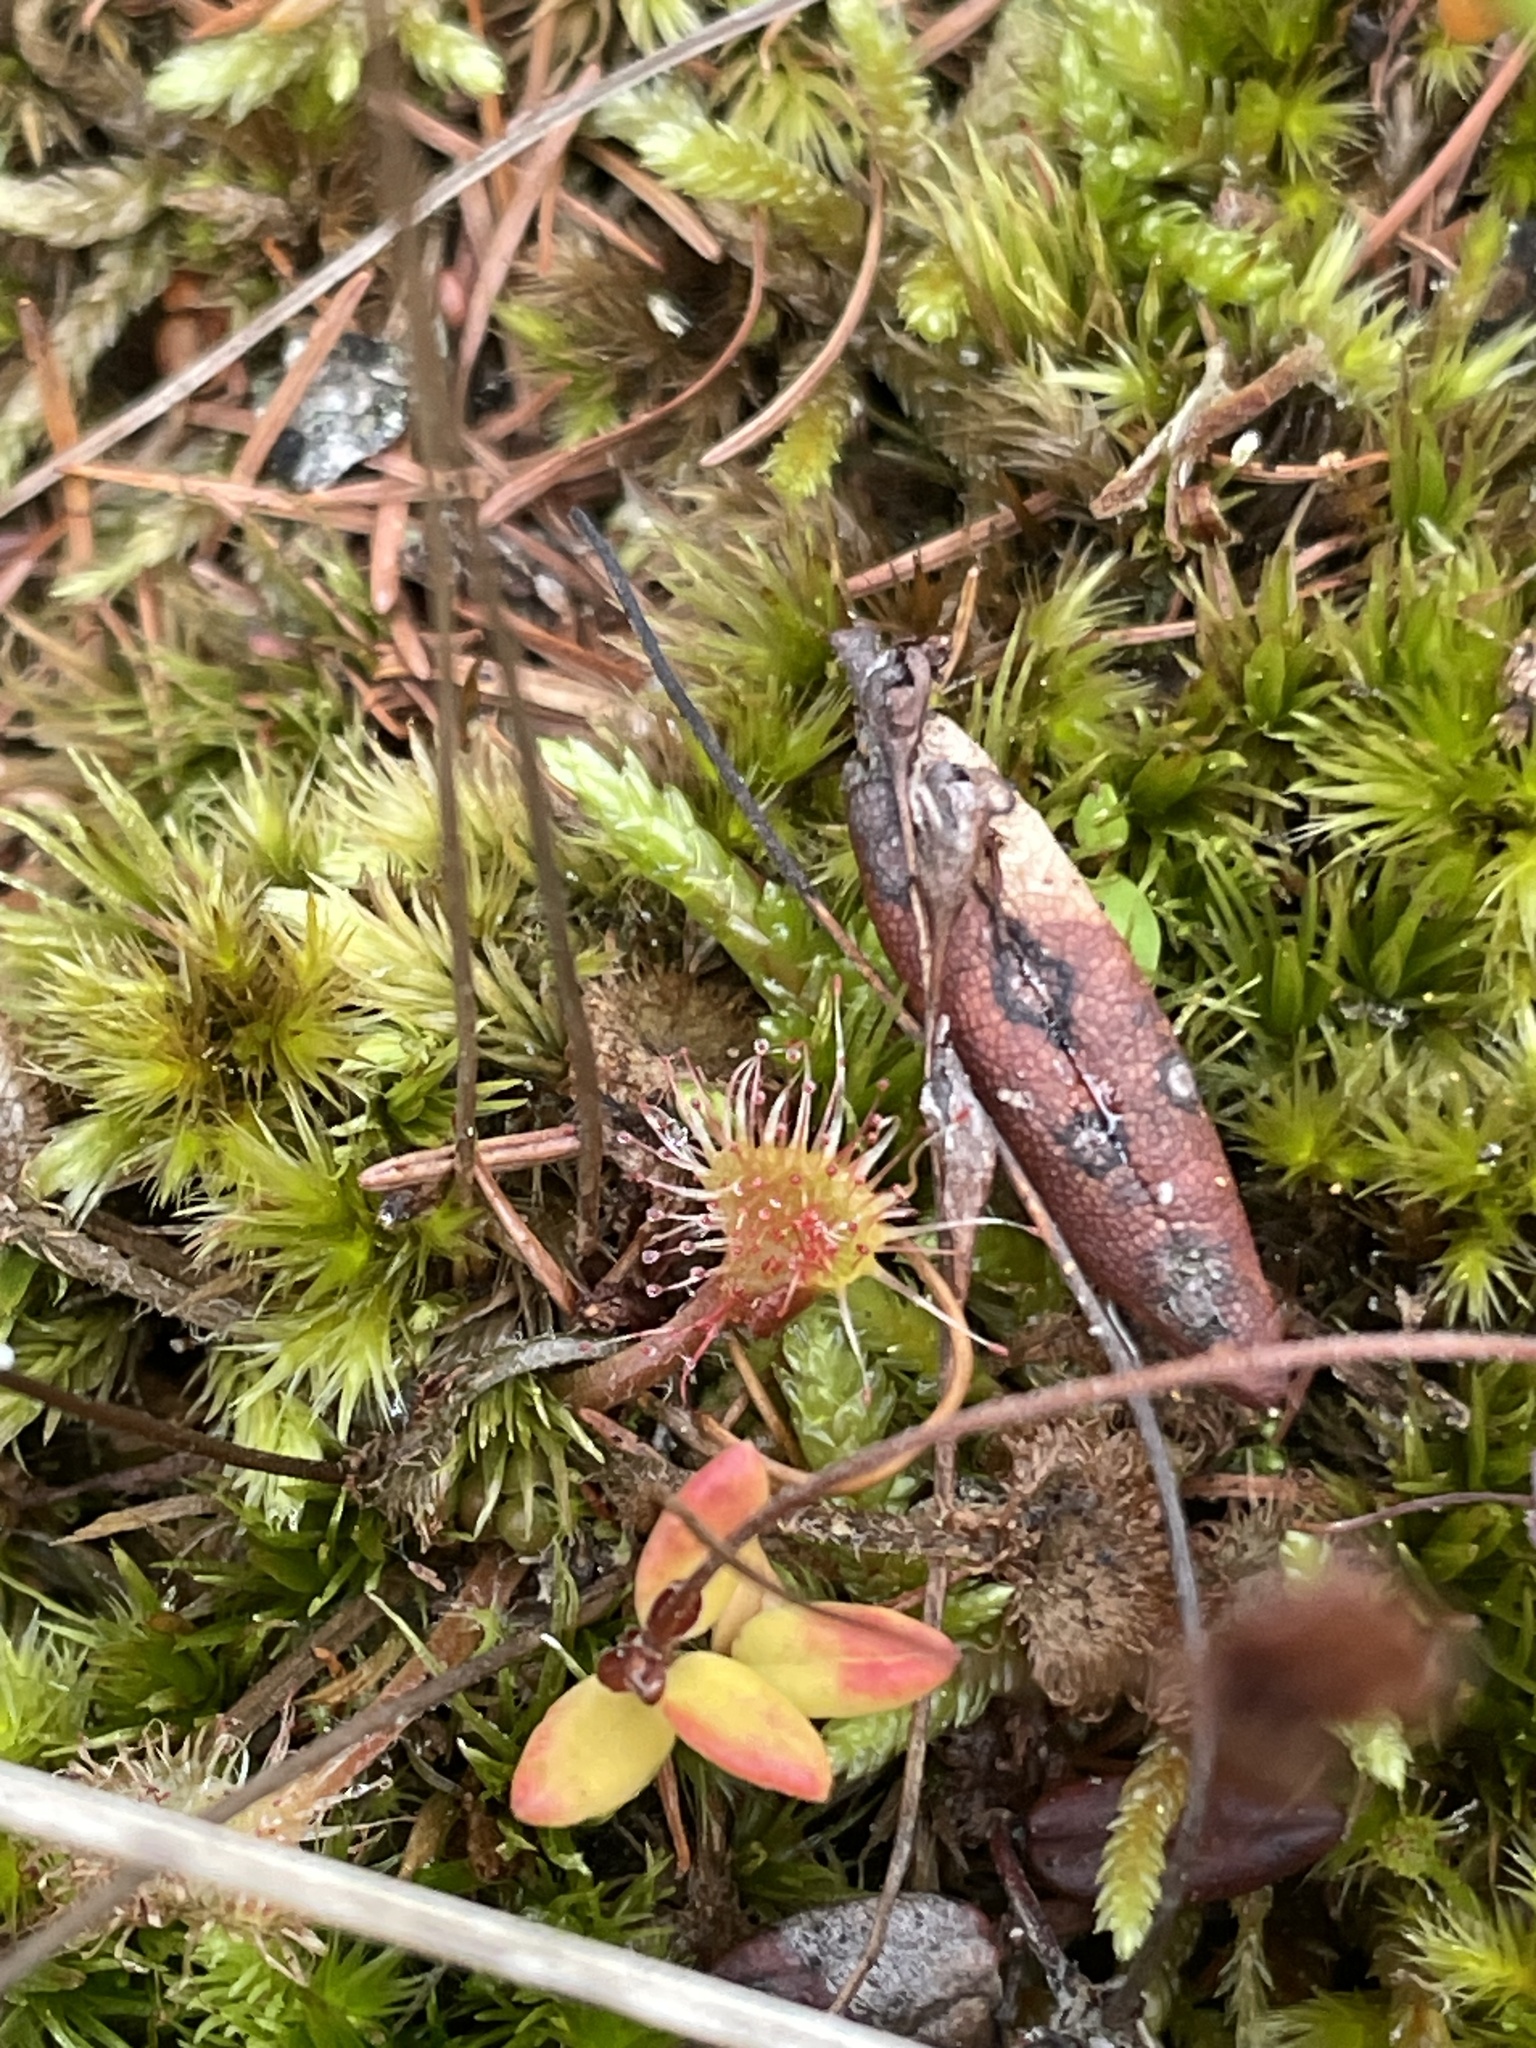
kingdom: Plantae
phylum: Tracheophyta
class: Magnoliopsida
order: Caryophyllales
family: Droseraceae
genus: Drosera
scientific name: Drosera rotundifolia
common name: Round-leaved sundew
